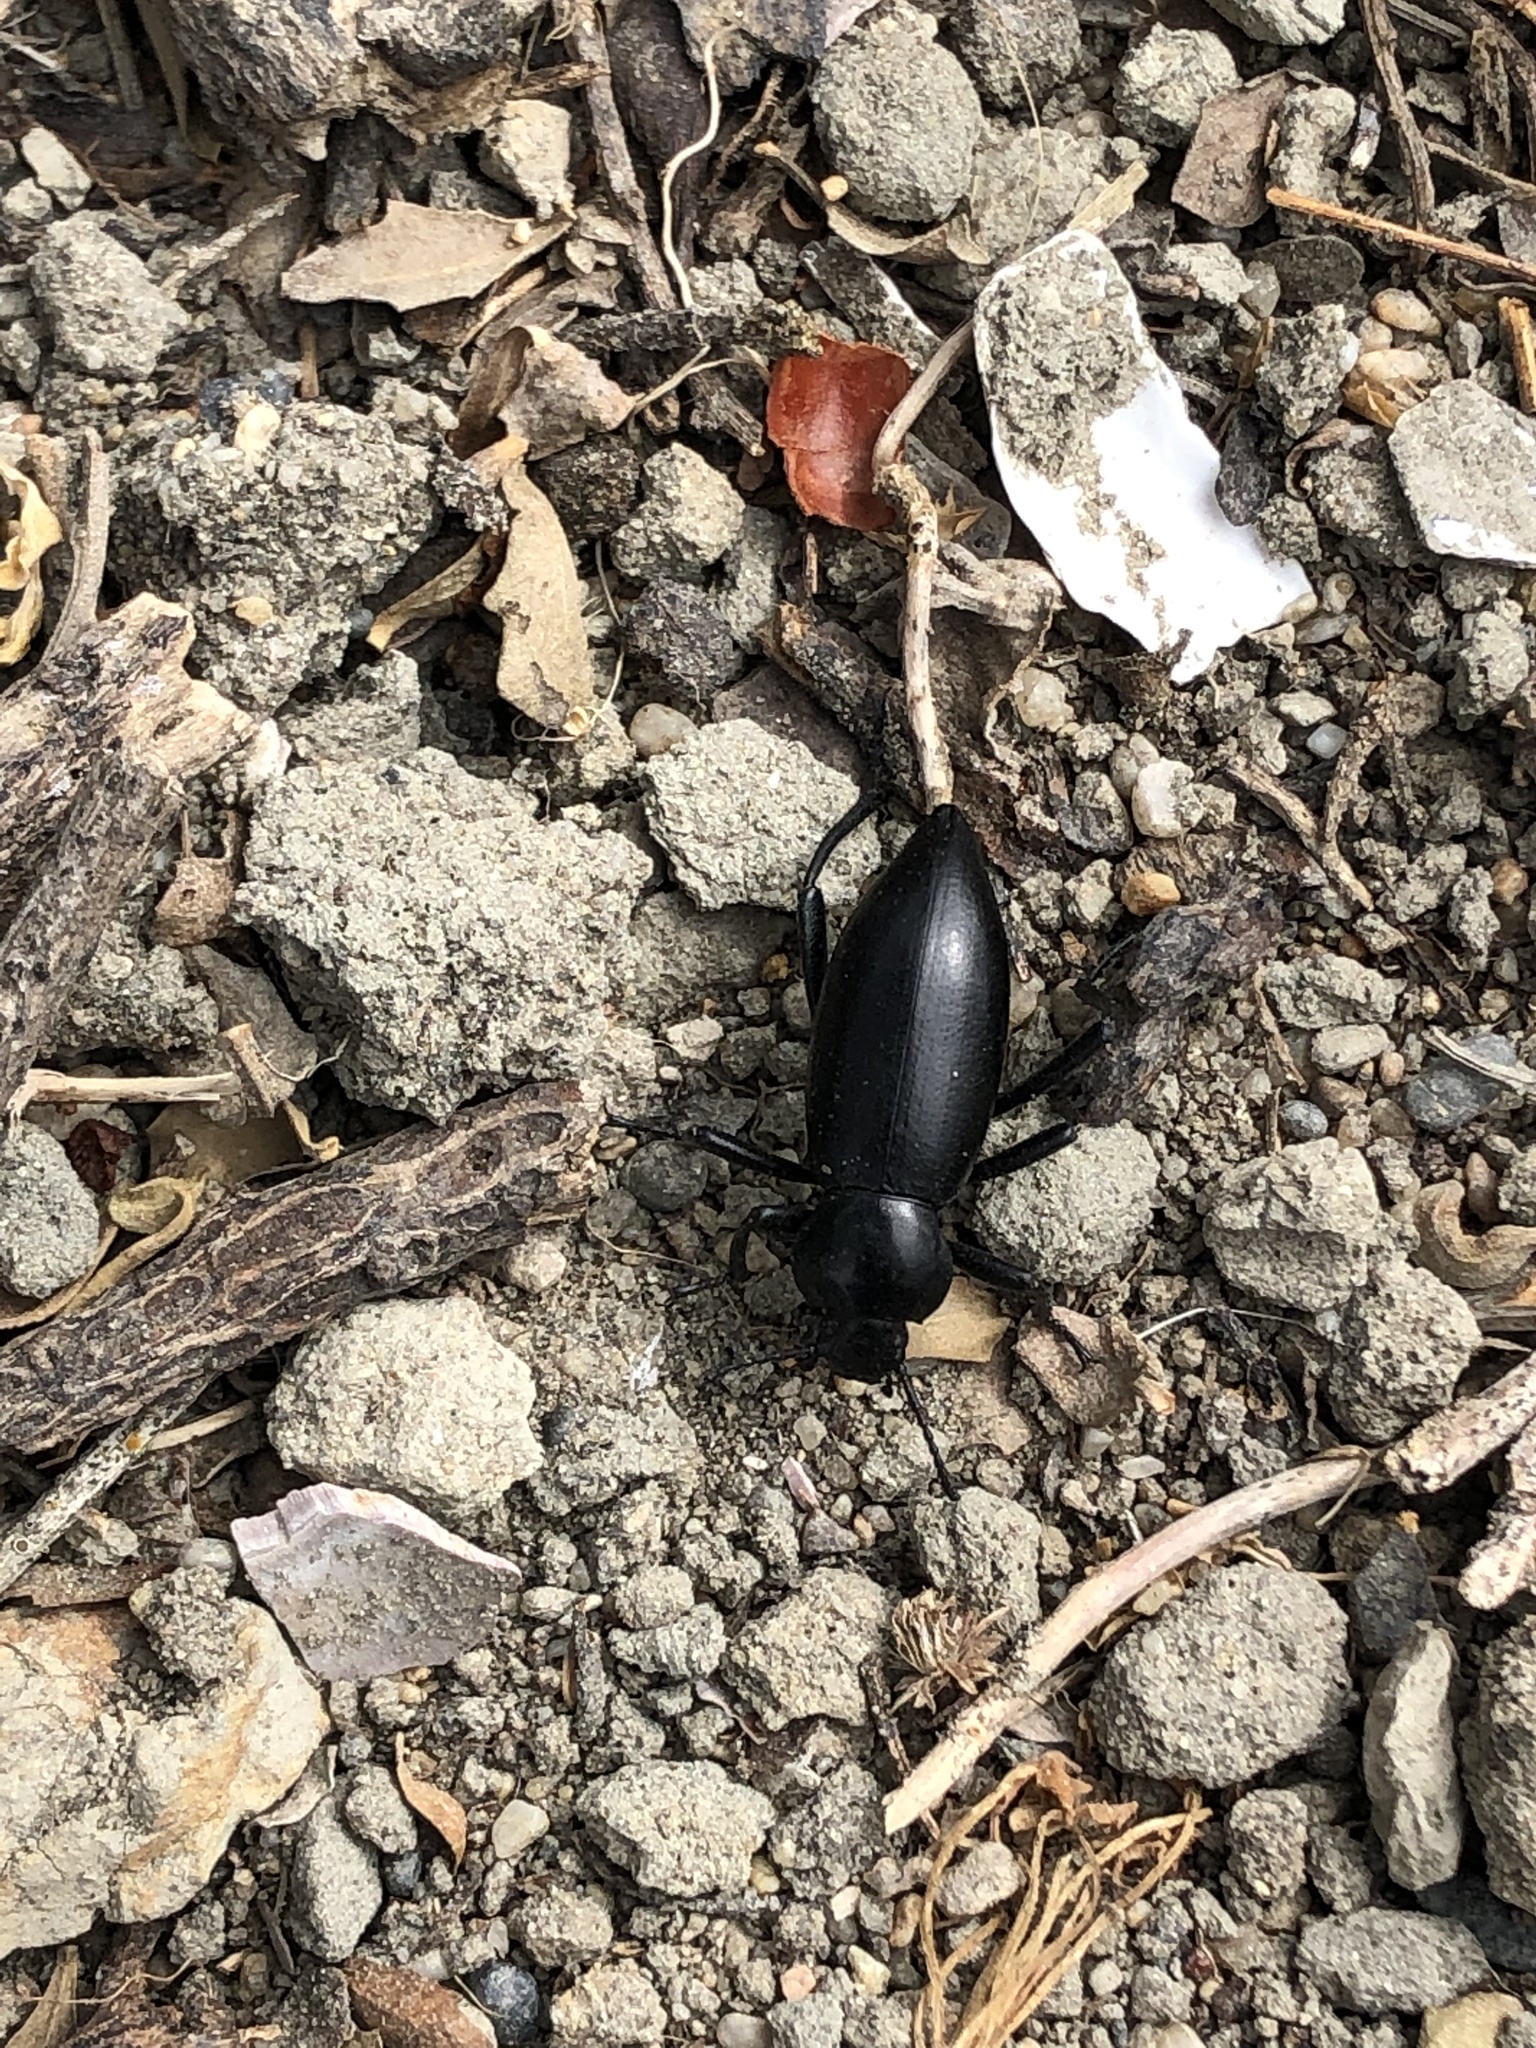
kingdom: Animalia
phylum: Arthropoda
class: Insecta
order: Coleoptera
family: Tenebrionidae
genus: Eleodes
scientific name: Eleodes dentipes
